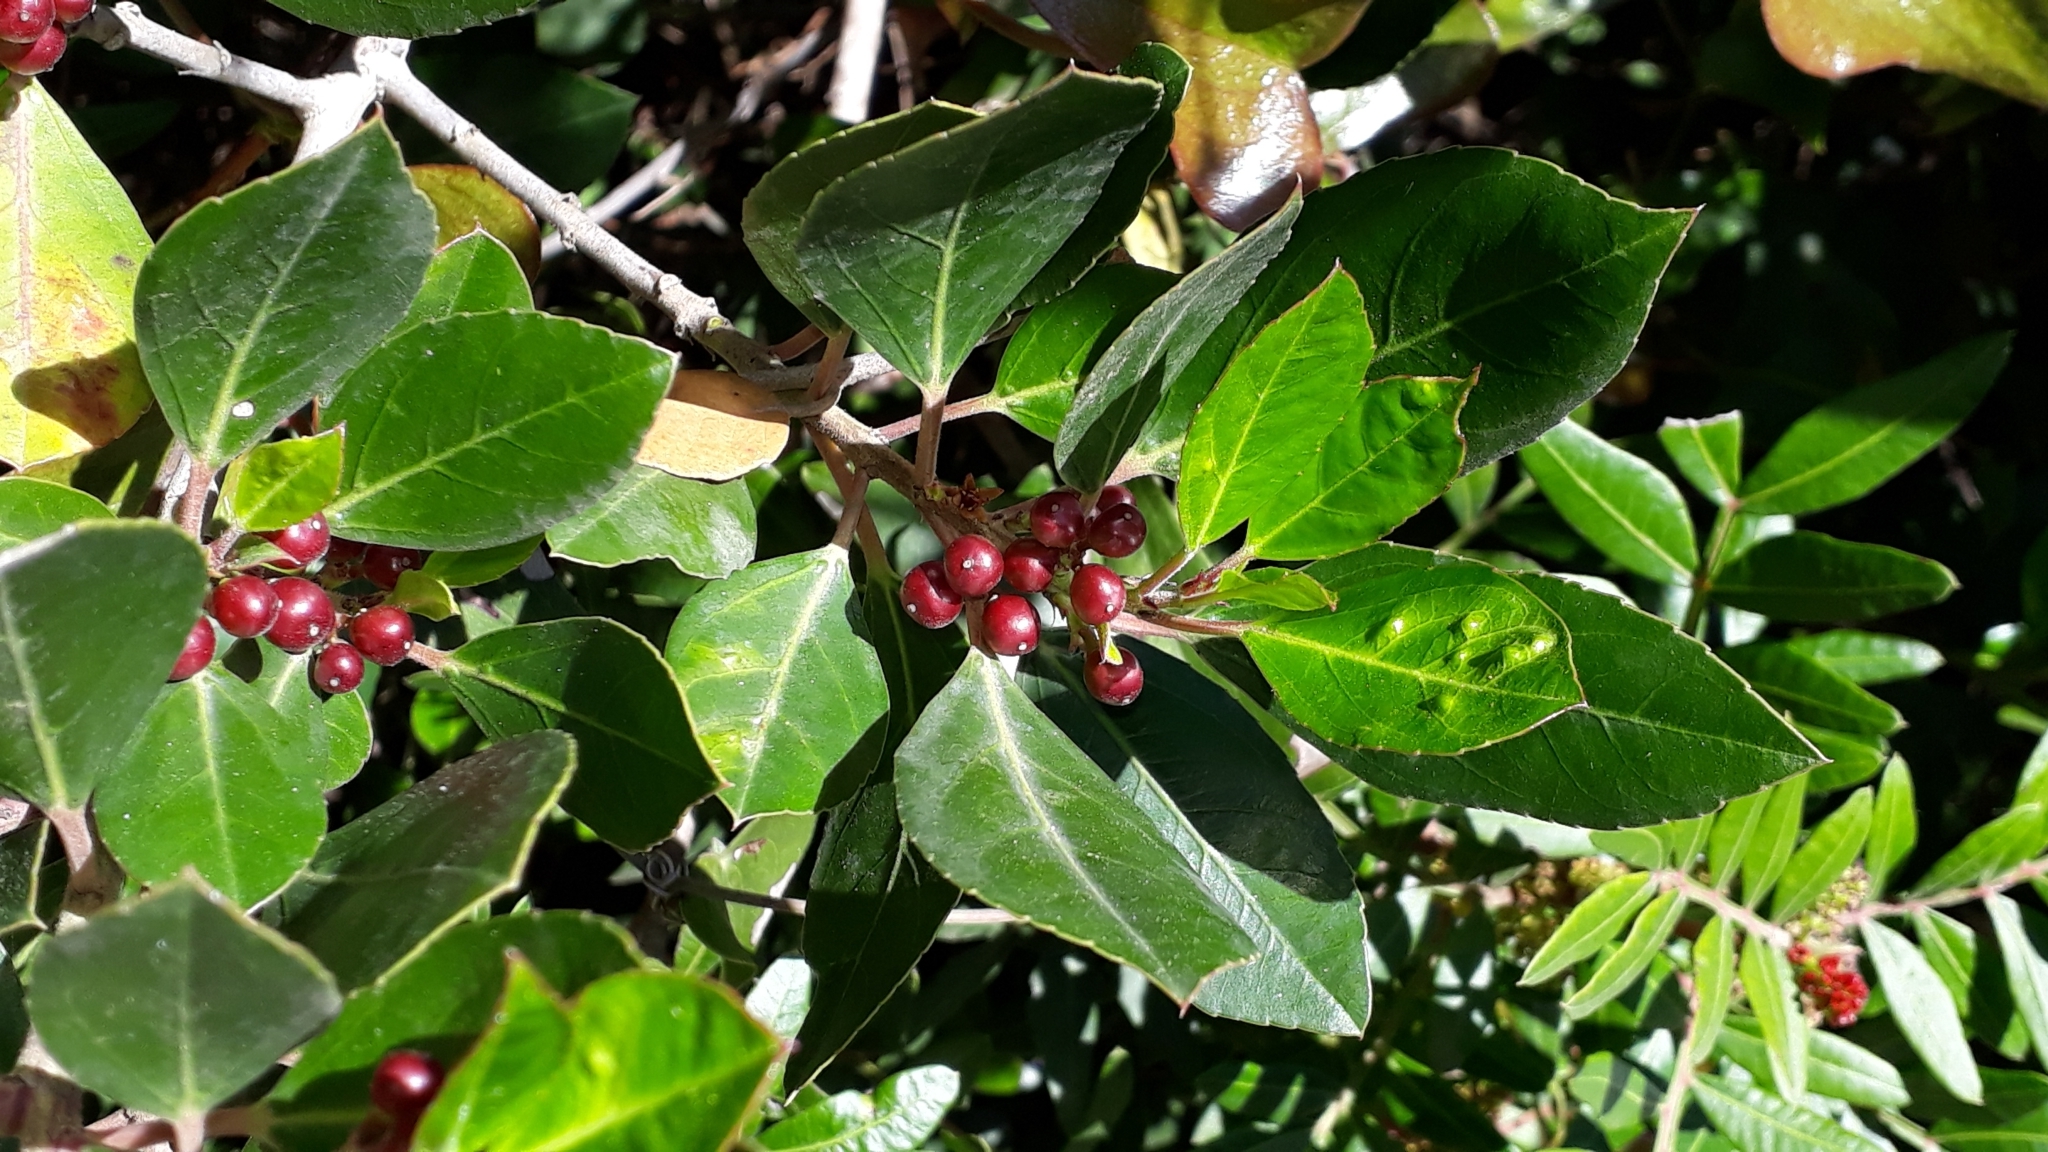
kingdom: Plantae
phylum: Tracheophyta
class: Magnoliopsida
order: Rosales
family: Rhamnaceae
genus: Rhamnus
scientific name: Rhamnus alaternus
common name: Mediterranean buckthorn
